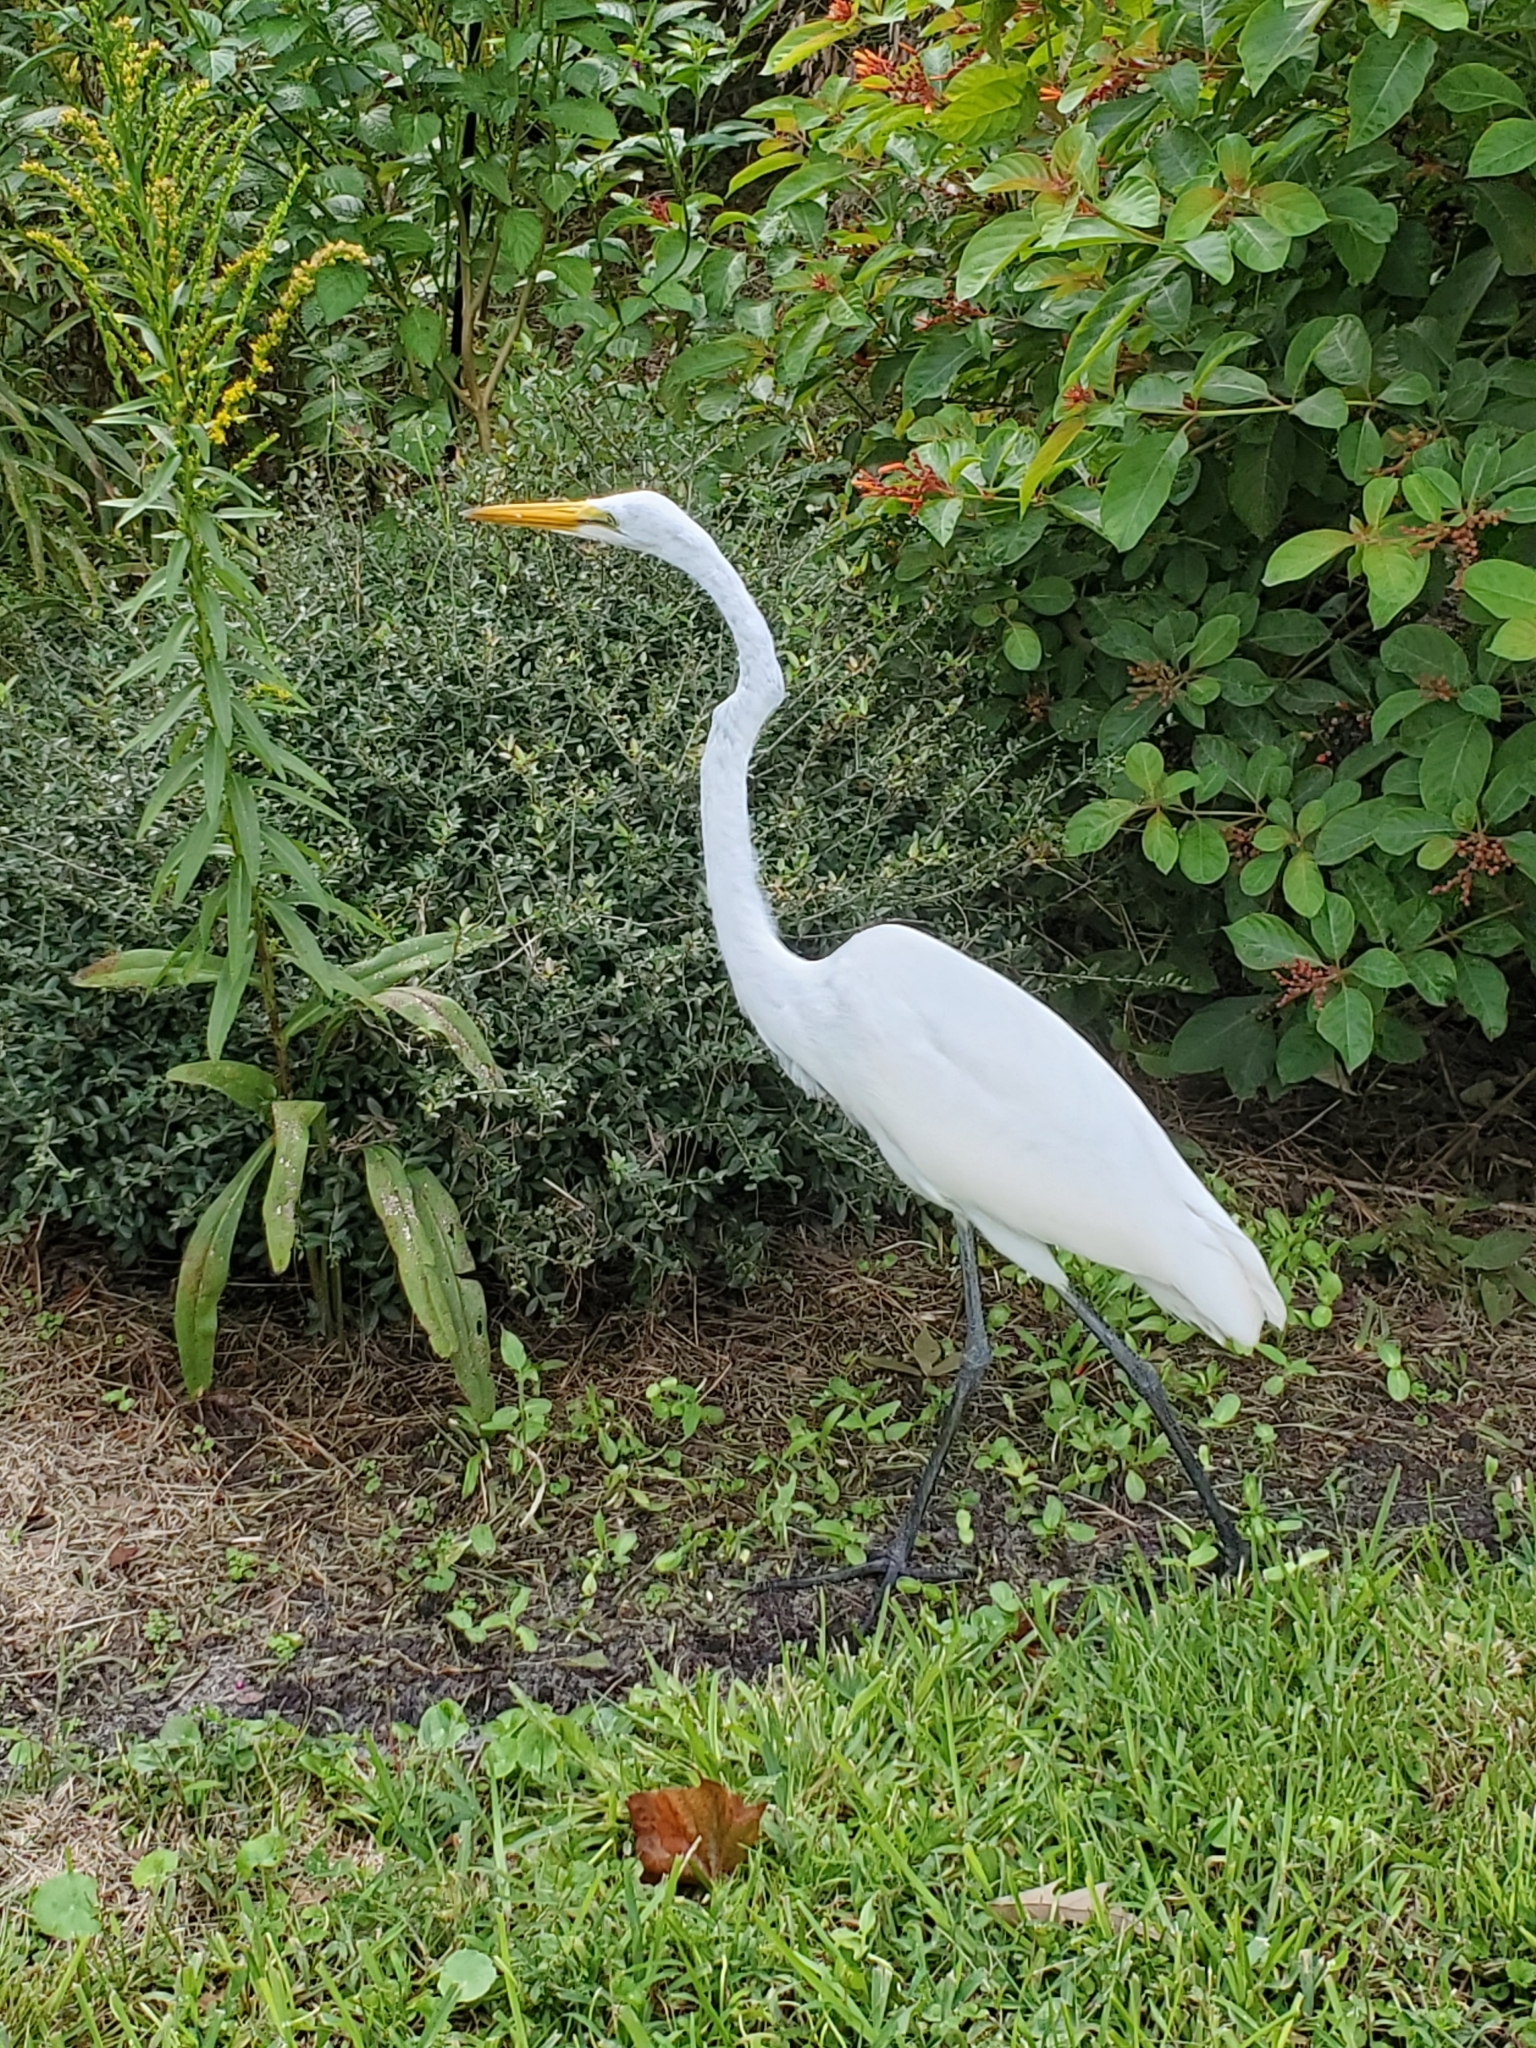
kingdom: Animalia
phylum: Chordata
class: Aves
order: Pelecaniformes
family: Ardeidae
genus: Ardea
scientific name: Ardea alba
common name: Great egret
